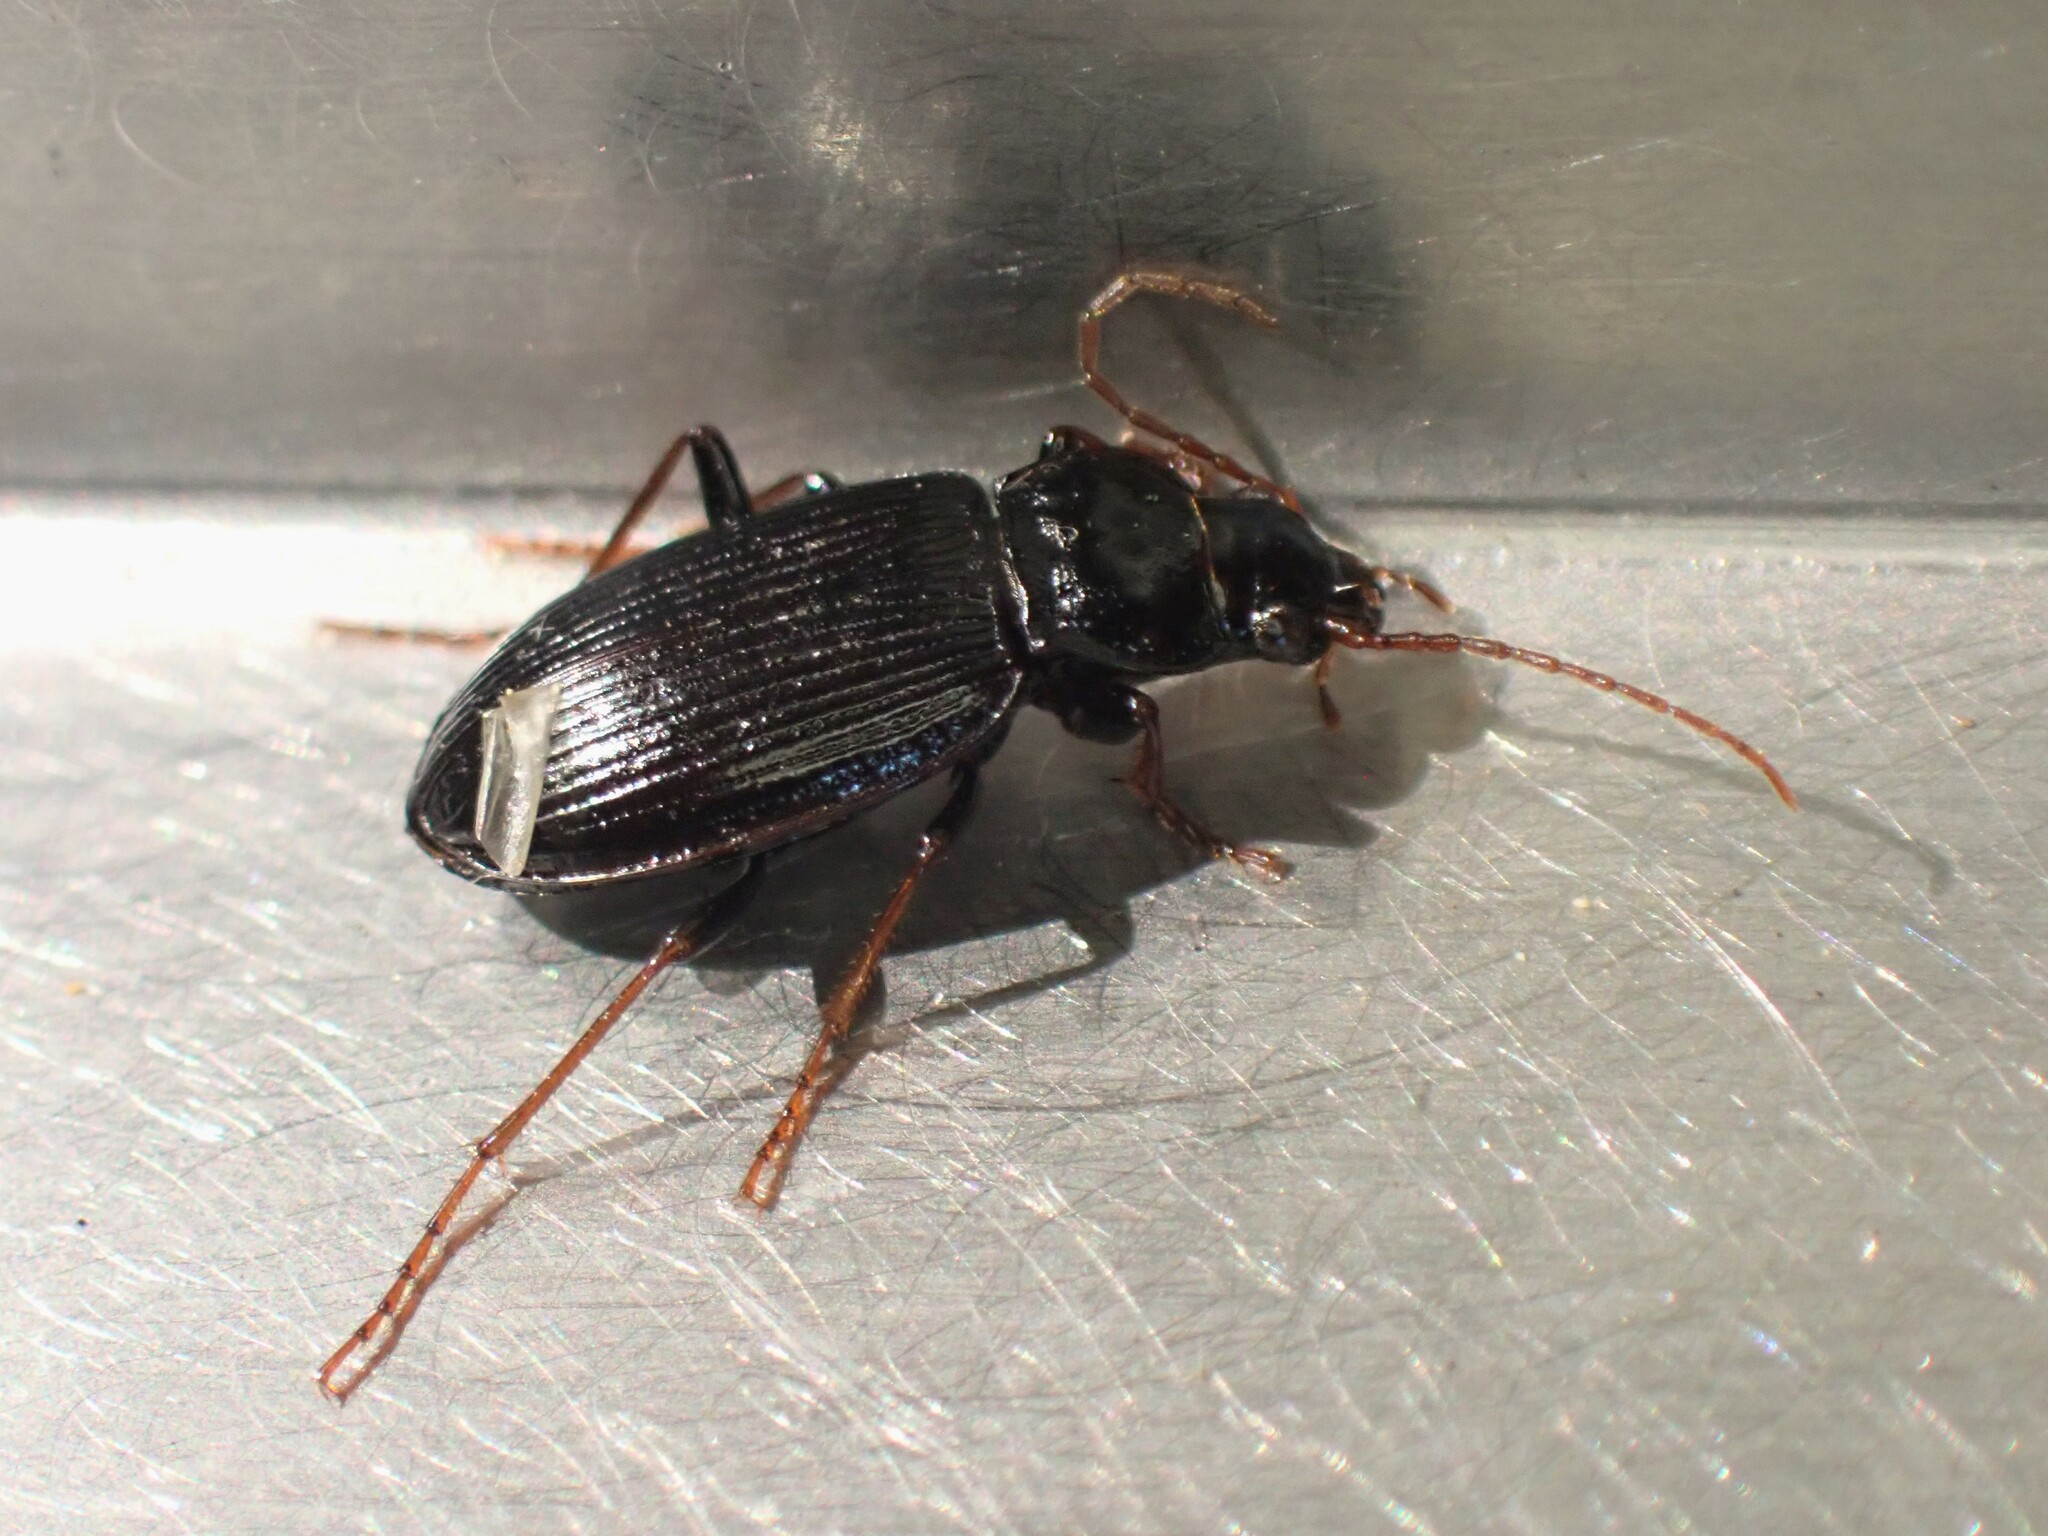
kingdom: Animalia
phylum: Arthropoda
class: Insecta
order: Coleoptera
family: Carabidae
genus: Nebria
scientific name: Nebria brevicollis
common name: Short-necked gazelle beetle
